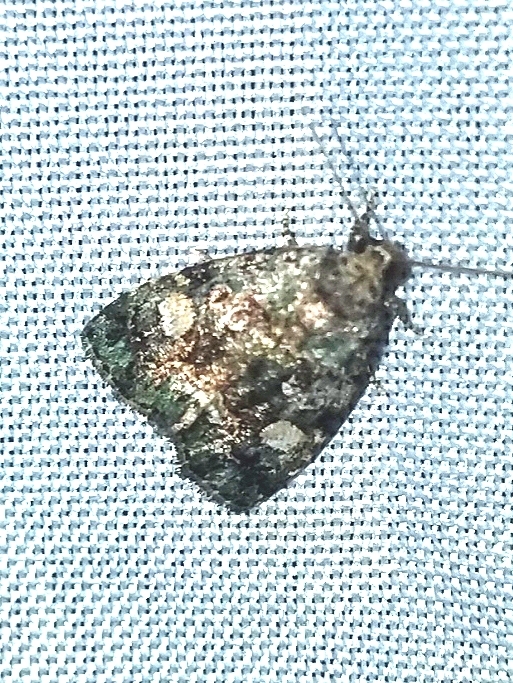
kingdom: Animalia
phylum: Arthropoda
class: Insecta
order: Lepidoptera
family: Noctuidae
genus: Lithacodia
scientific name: Lithacodia musta
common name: Small mossy glyph
